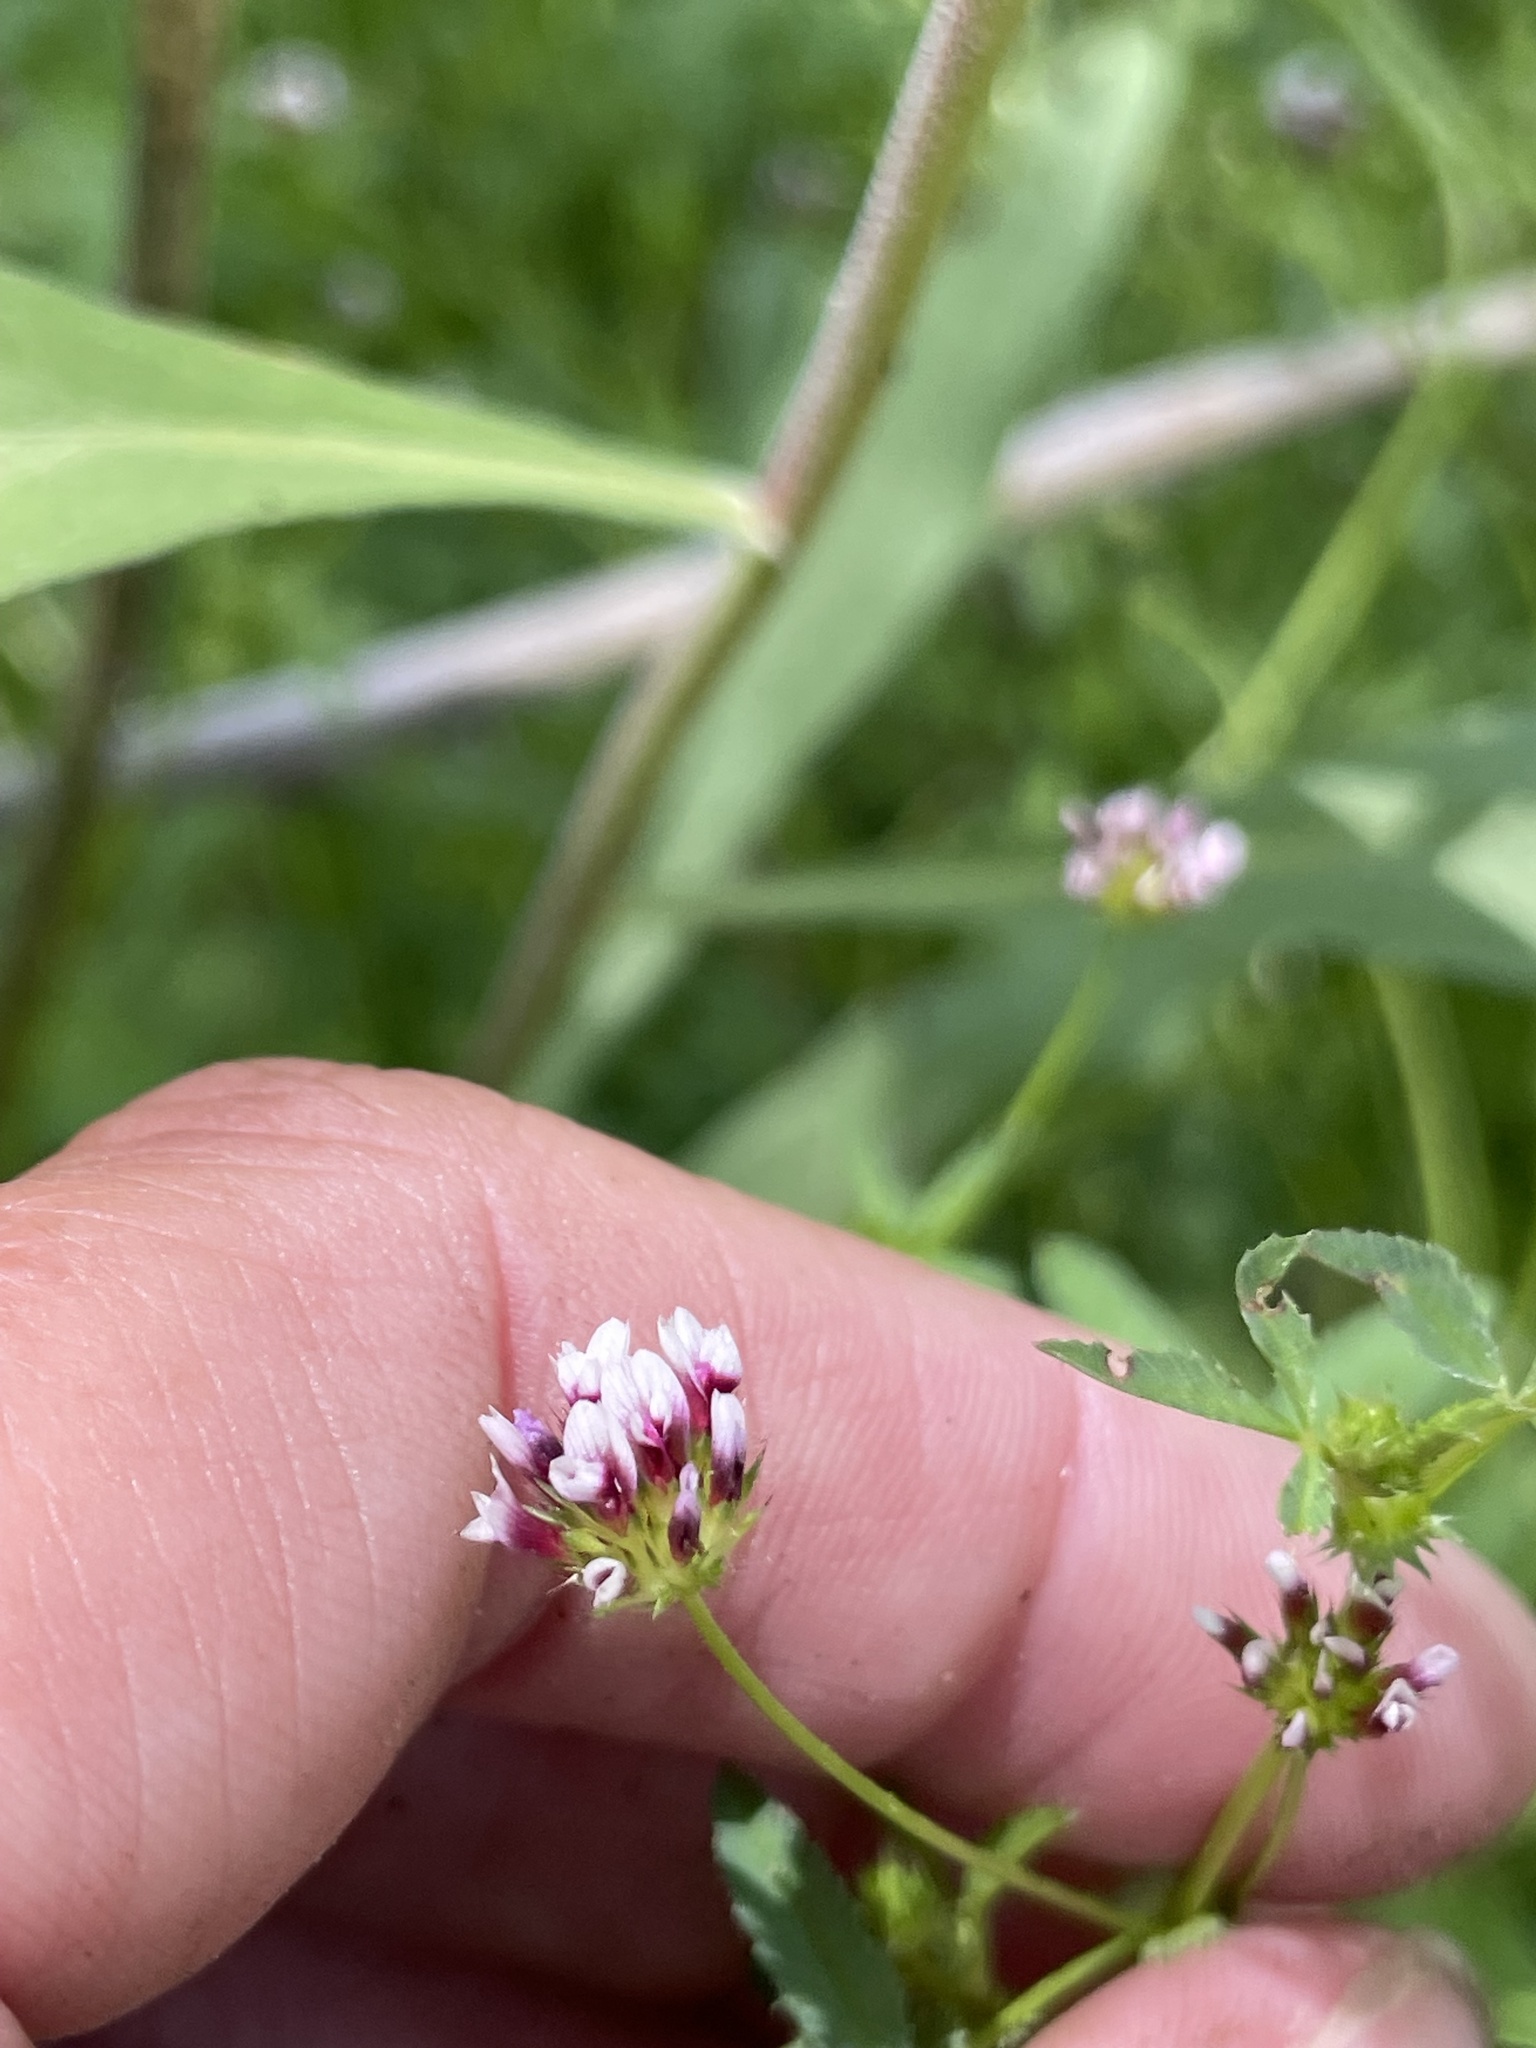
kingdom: Plantae
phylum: Tracheophyta
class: Magnoliopsida
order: Fabales
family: Fabaceae
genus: Trifolium
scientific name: Trifolium variegatum
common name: Whitetip clover
